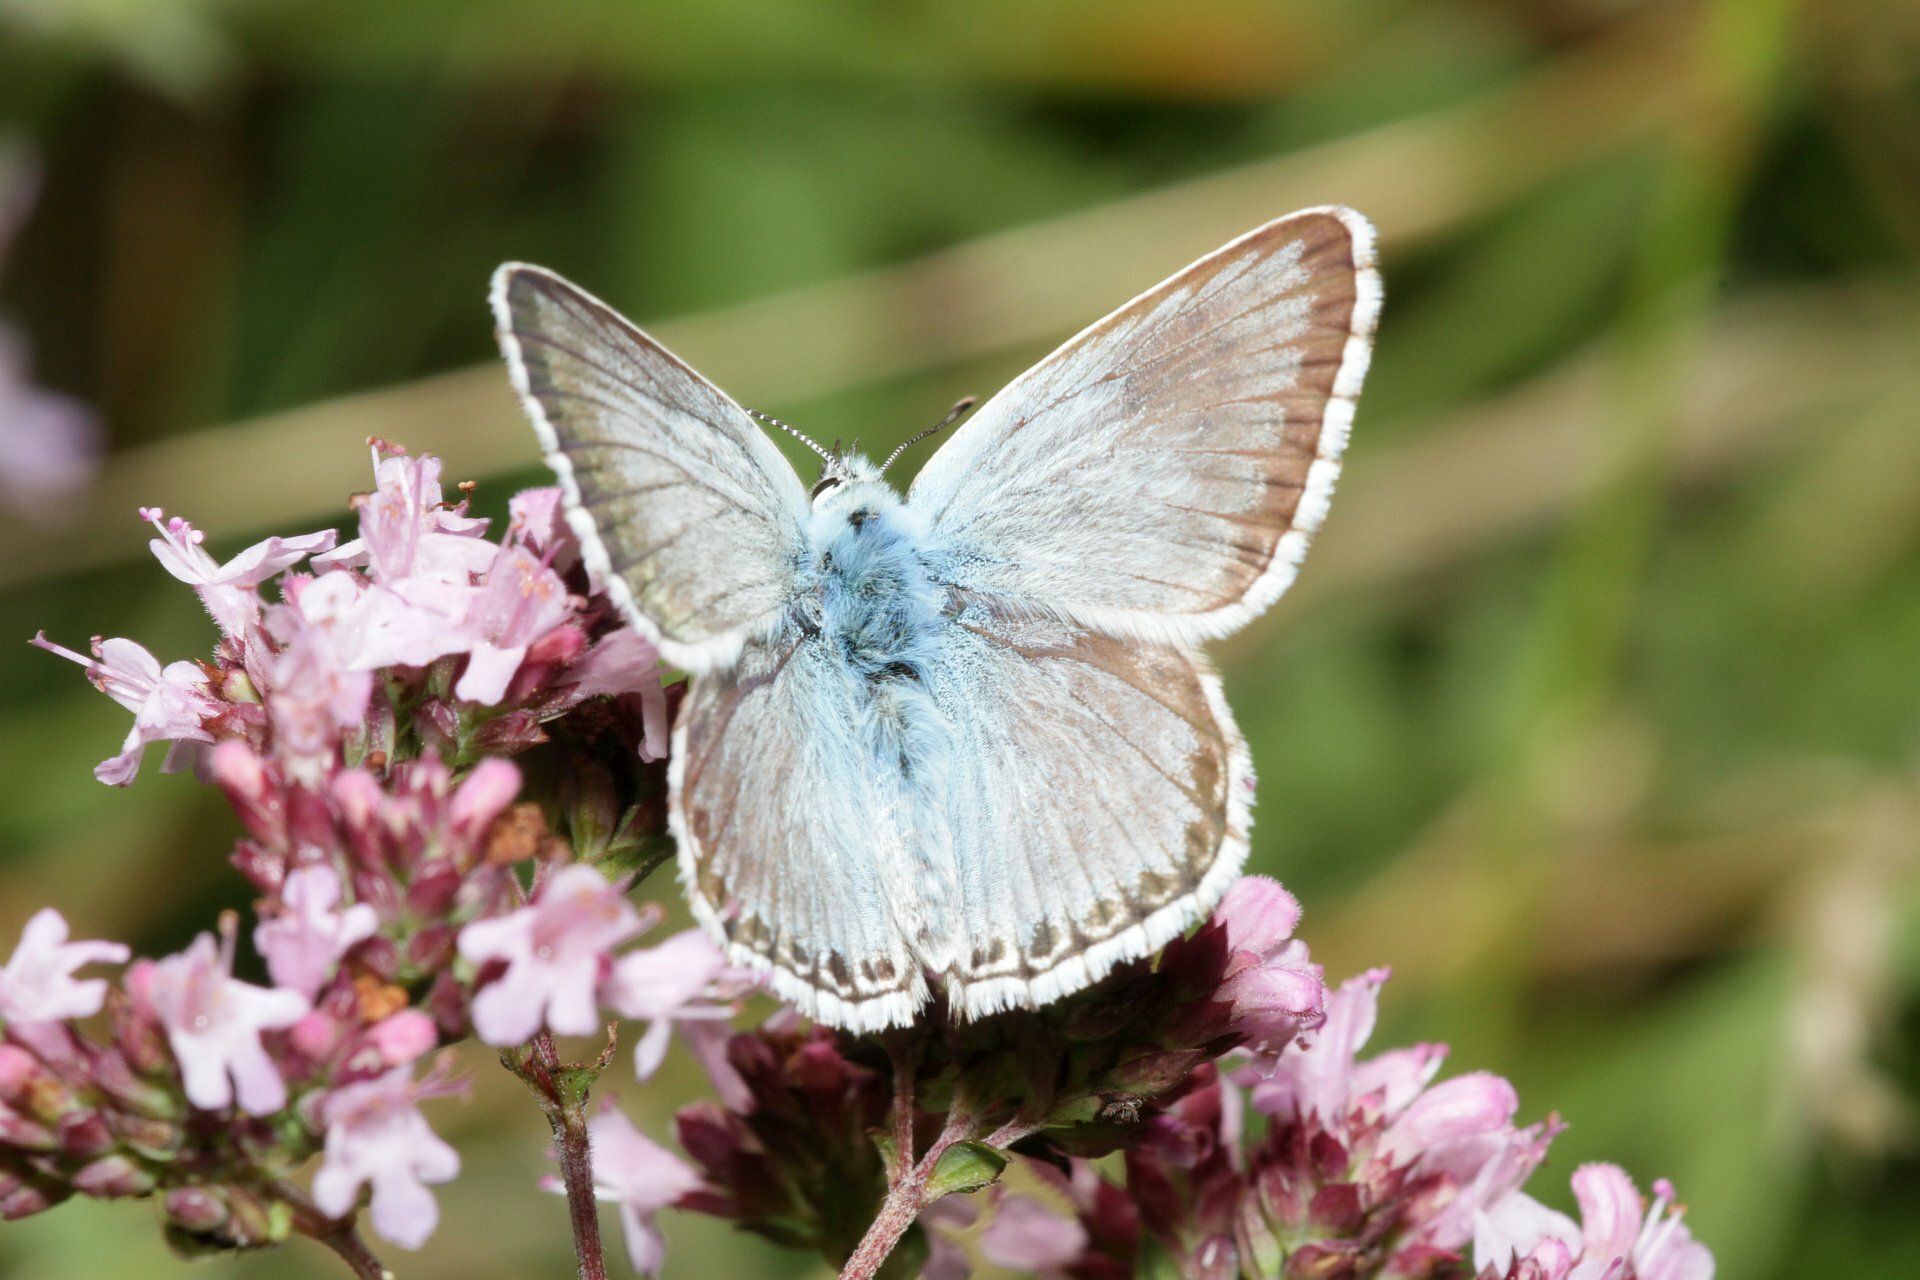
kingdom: Animalia
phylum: Arthropoda
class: Insecta
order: Lepidoptera
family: Lycaenidae
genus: Lysandra
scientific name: Lysandra coridon
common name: Chalkhill blue
